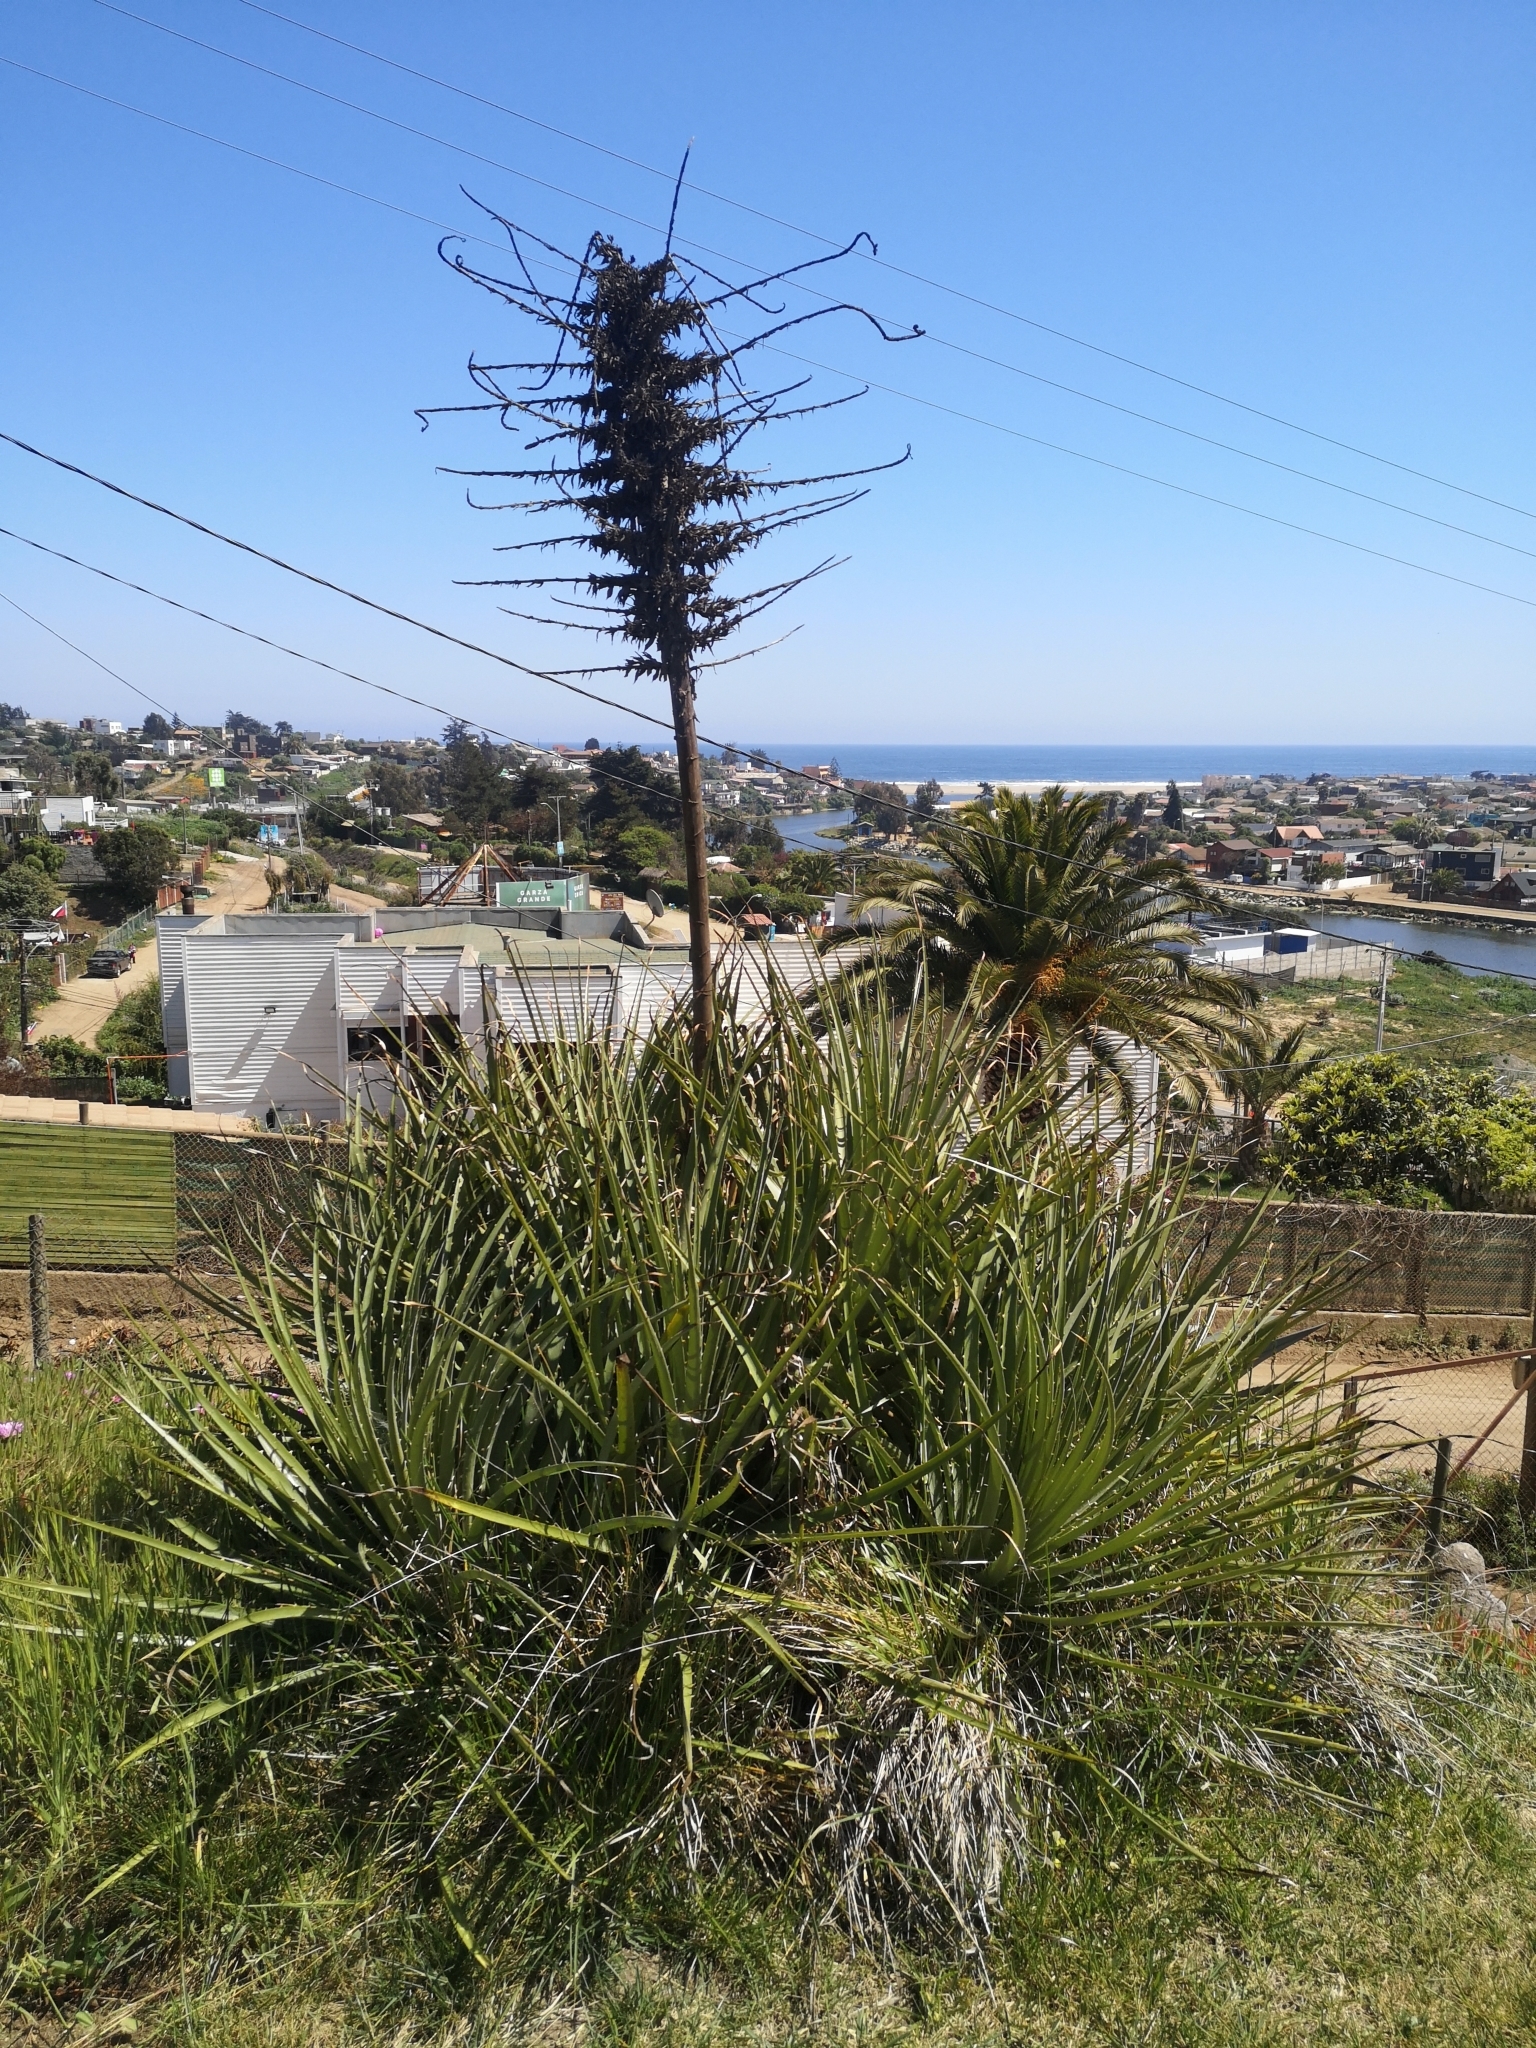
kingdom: Plantae
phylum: Tracheophyta
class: Liliopsida
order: Poales
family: Bromeliaceae
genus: Puya
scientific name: Puya chilensis
